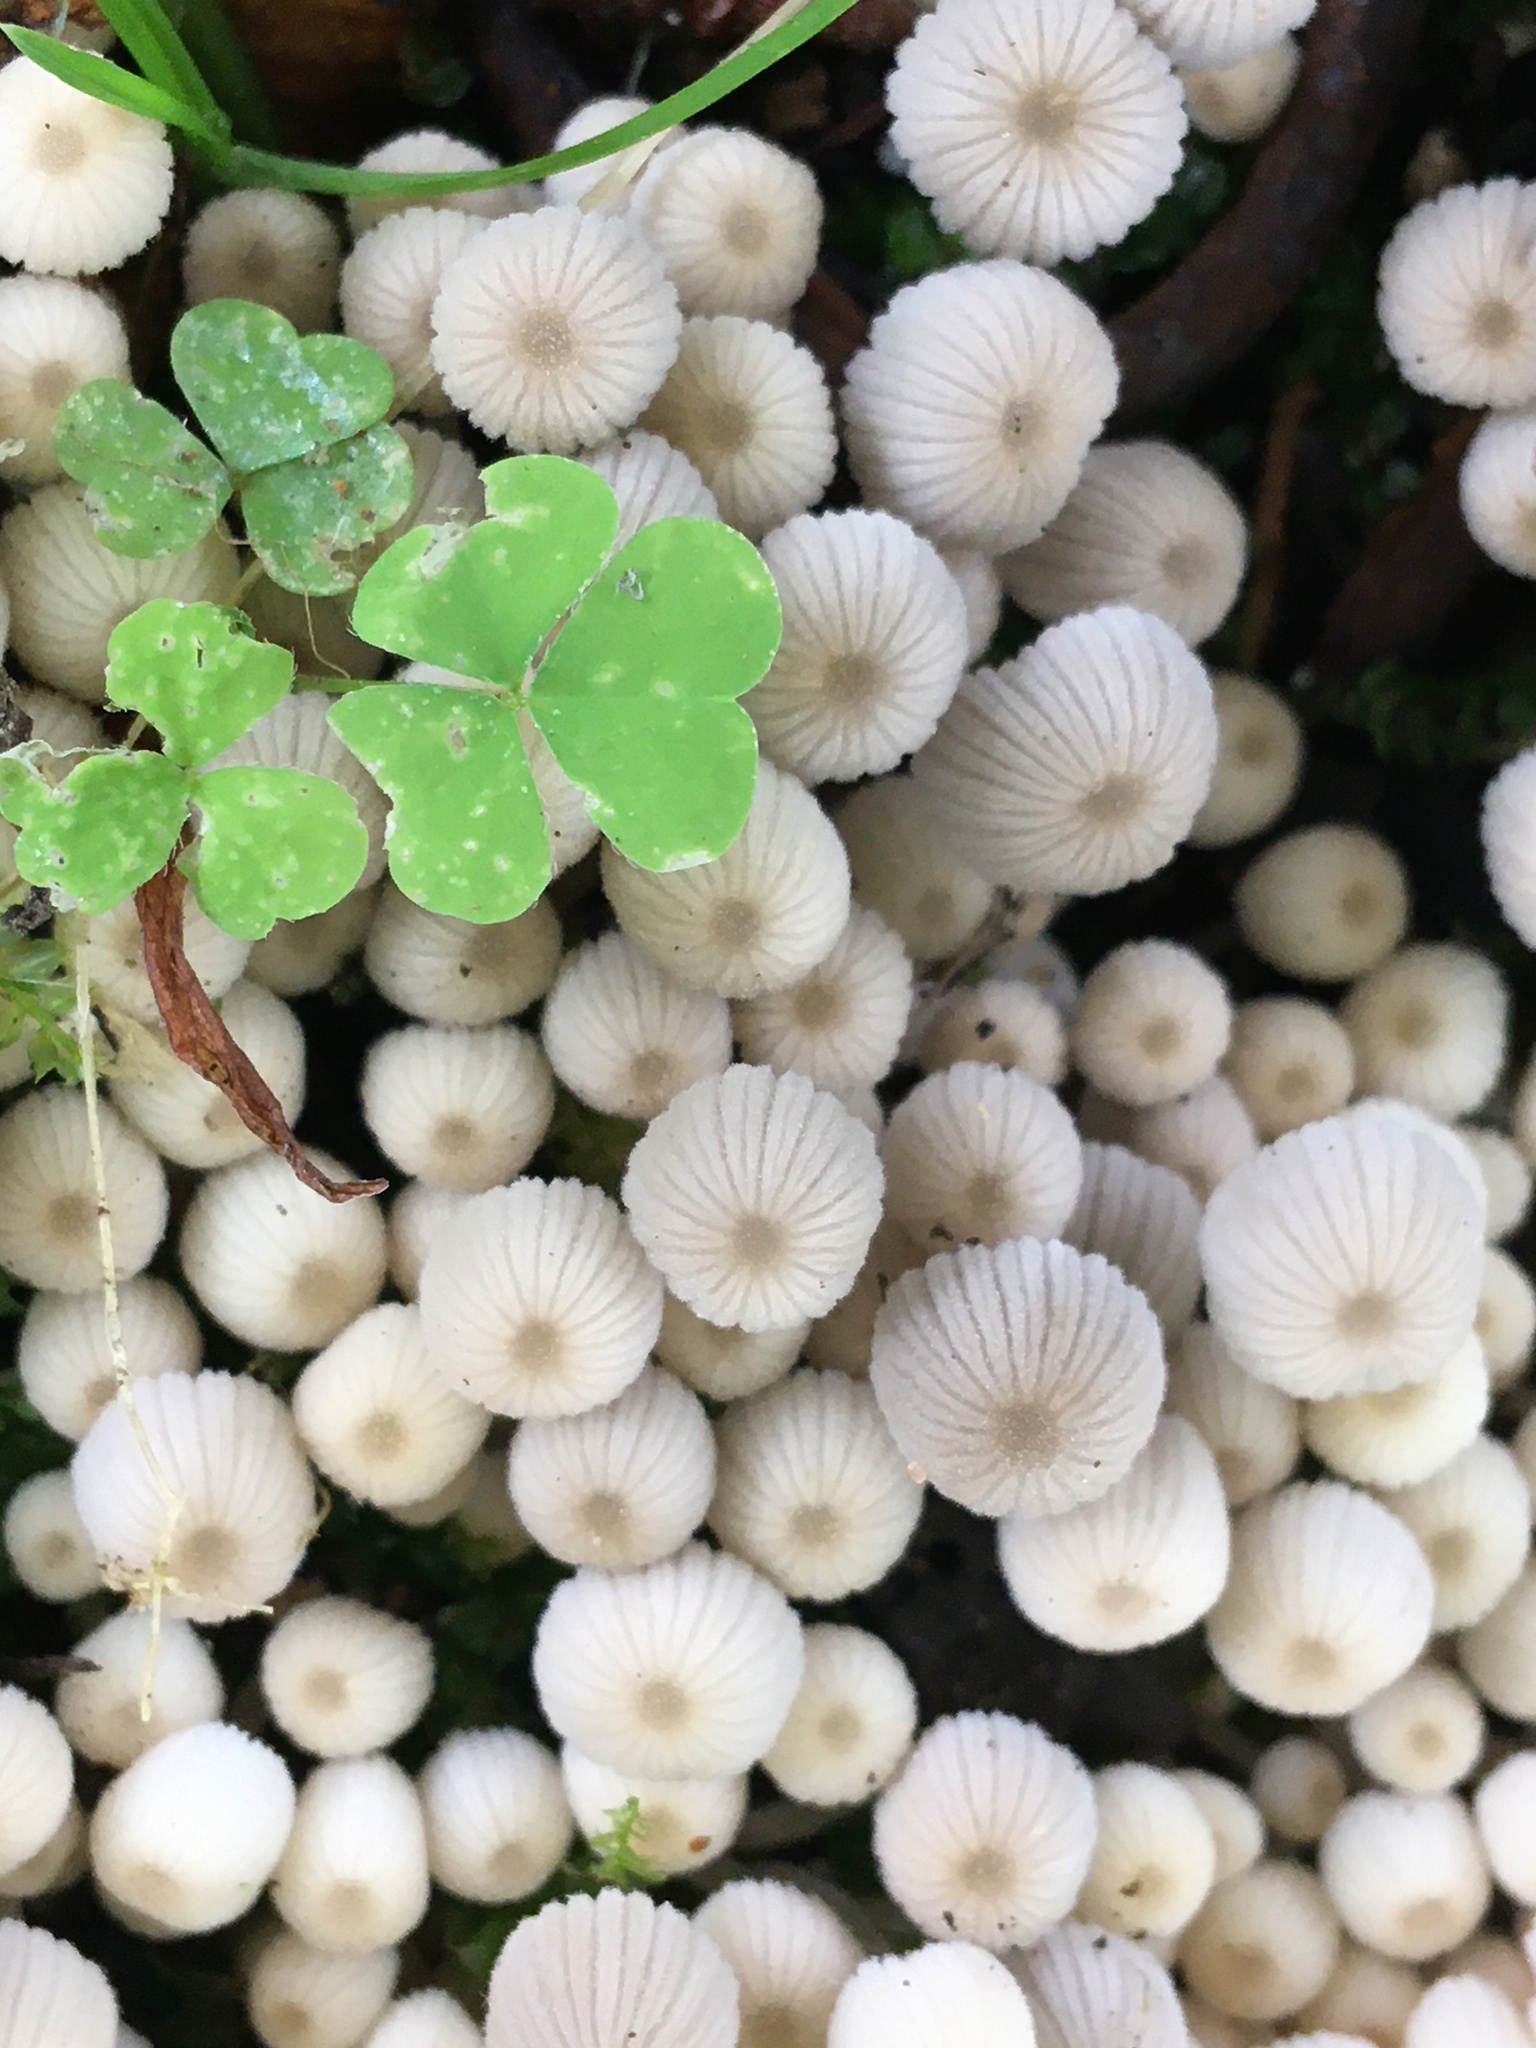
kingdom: Fungi
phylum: Basidiomycota
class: Agaricomycetes
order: Agaricales
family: Psathyrellaceae
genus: Coprinellus
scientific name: Coprinellus disseminatus
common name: Fairies' bonnets
